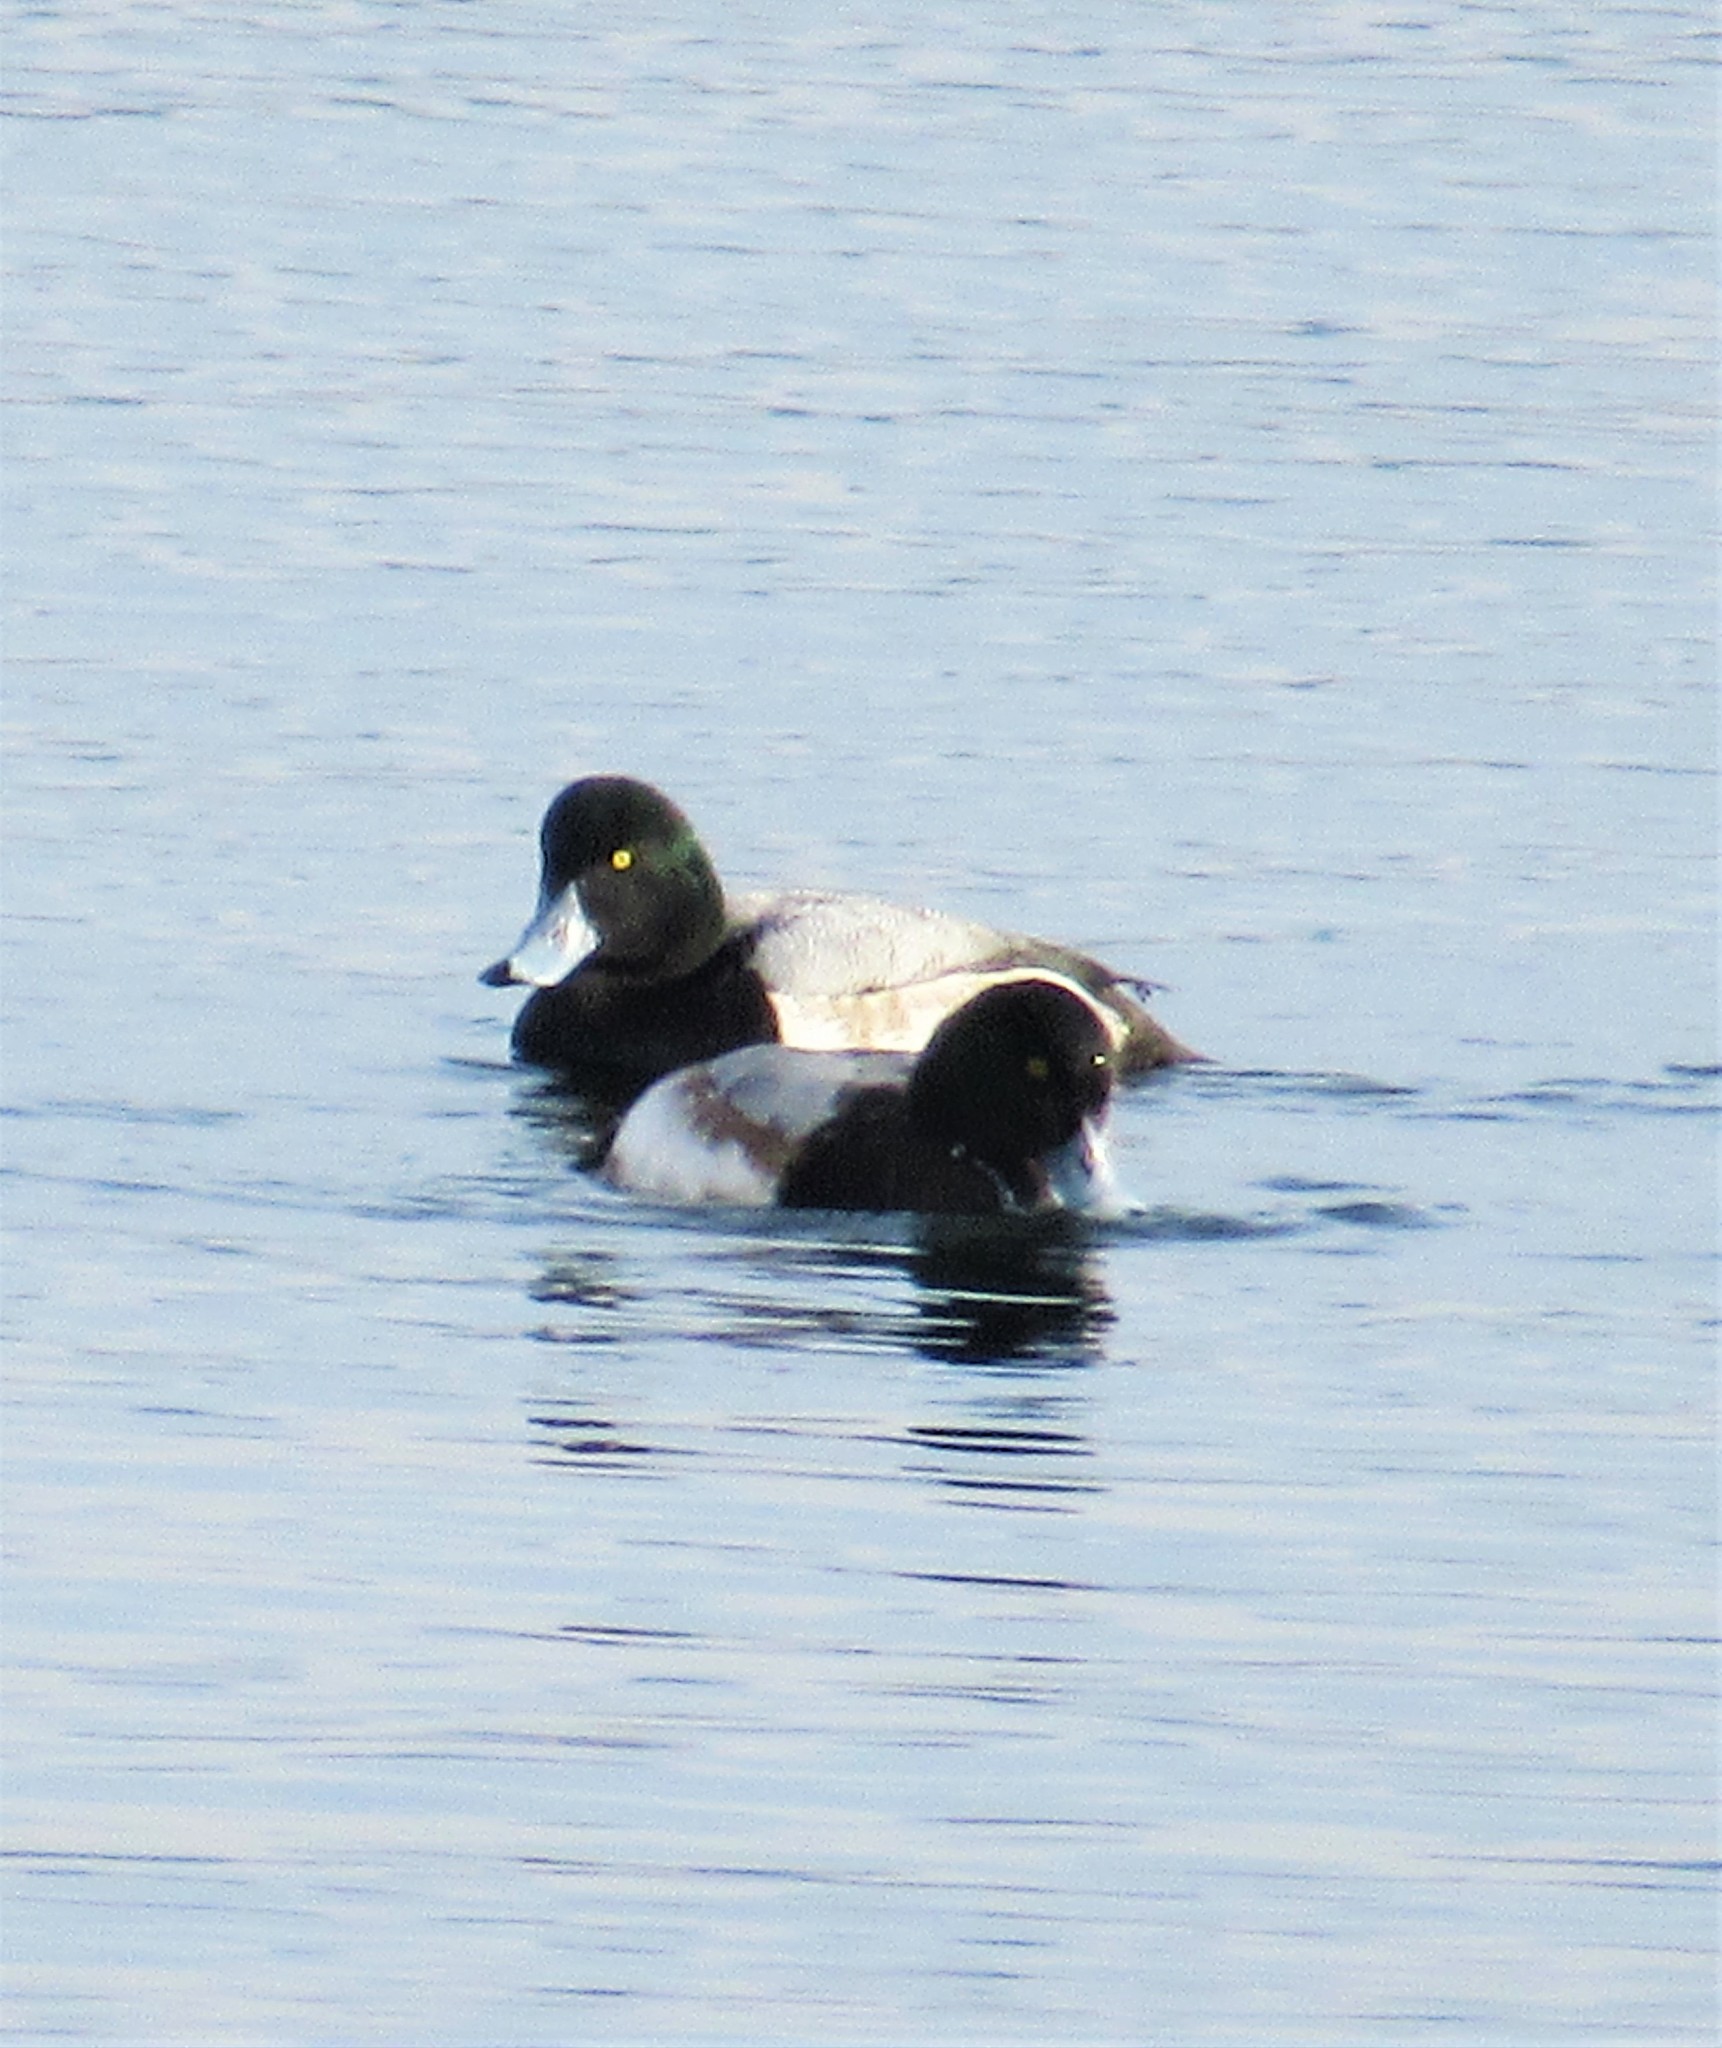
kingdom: Animalia
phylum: Chordata
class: Aves
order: Anseriformes
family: Anatidae
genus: Aythya
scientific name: Aythya marila
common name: Greater scaup
